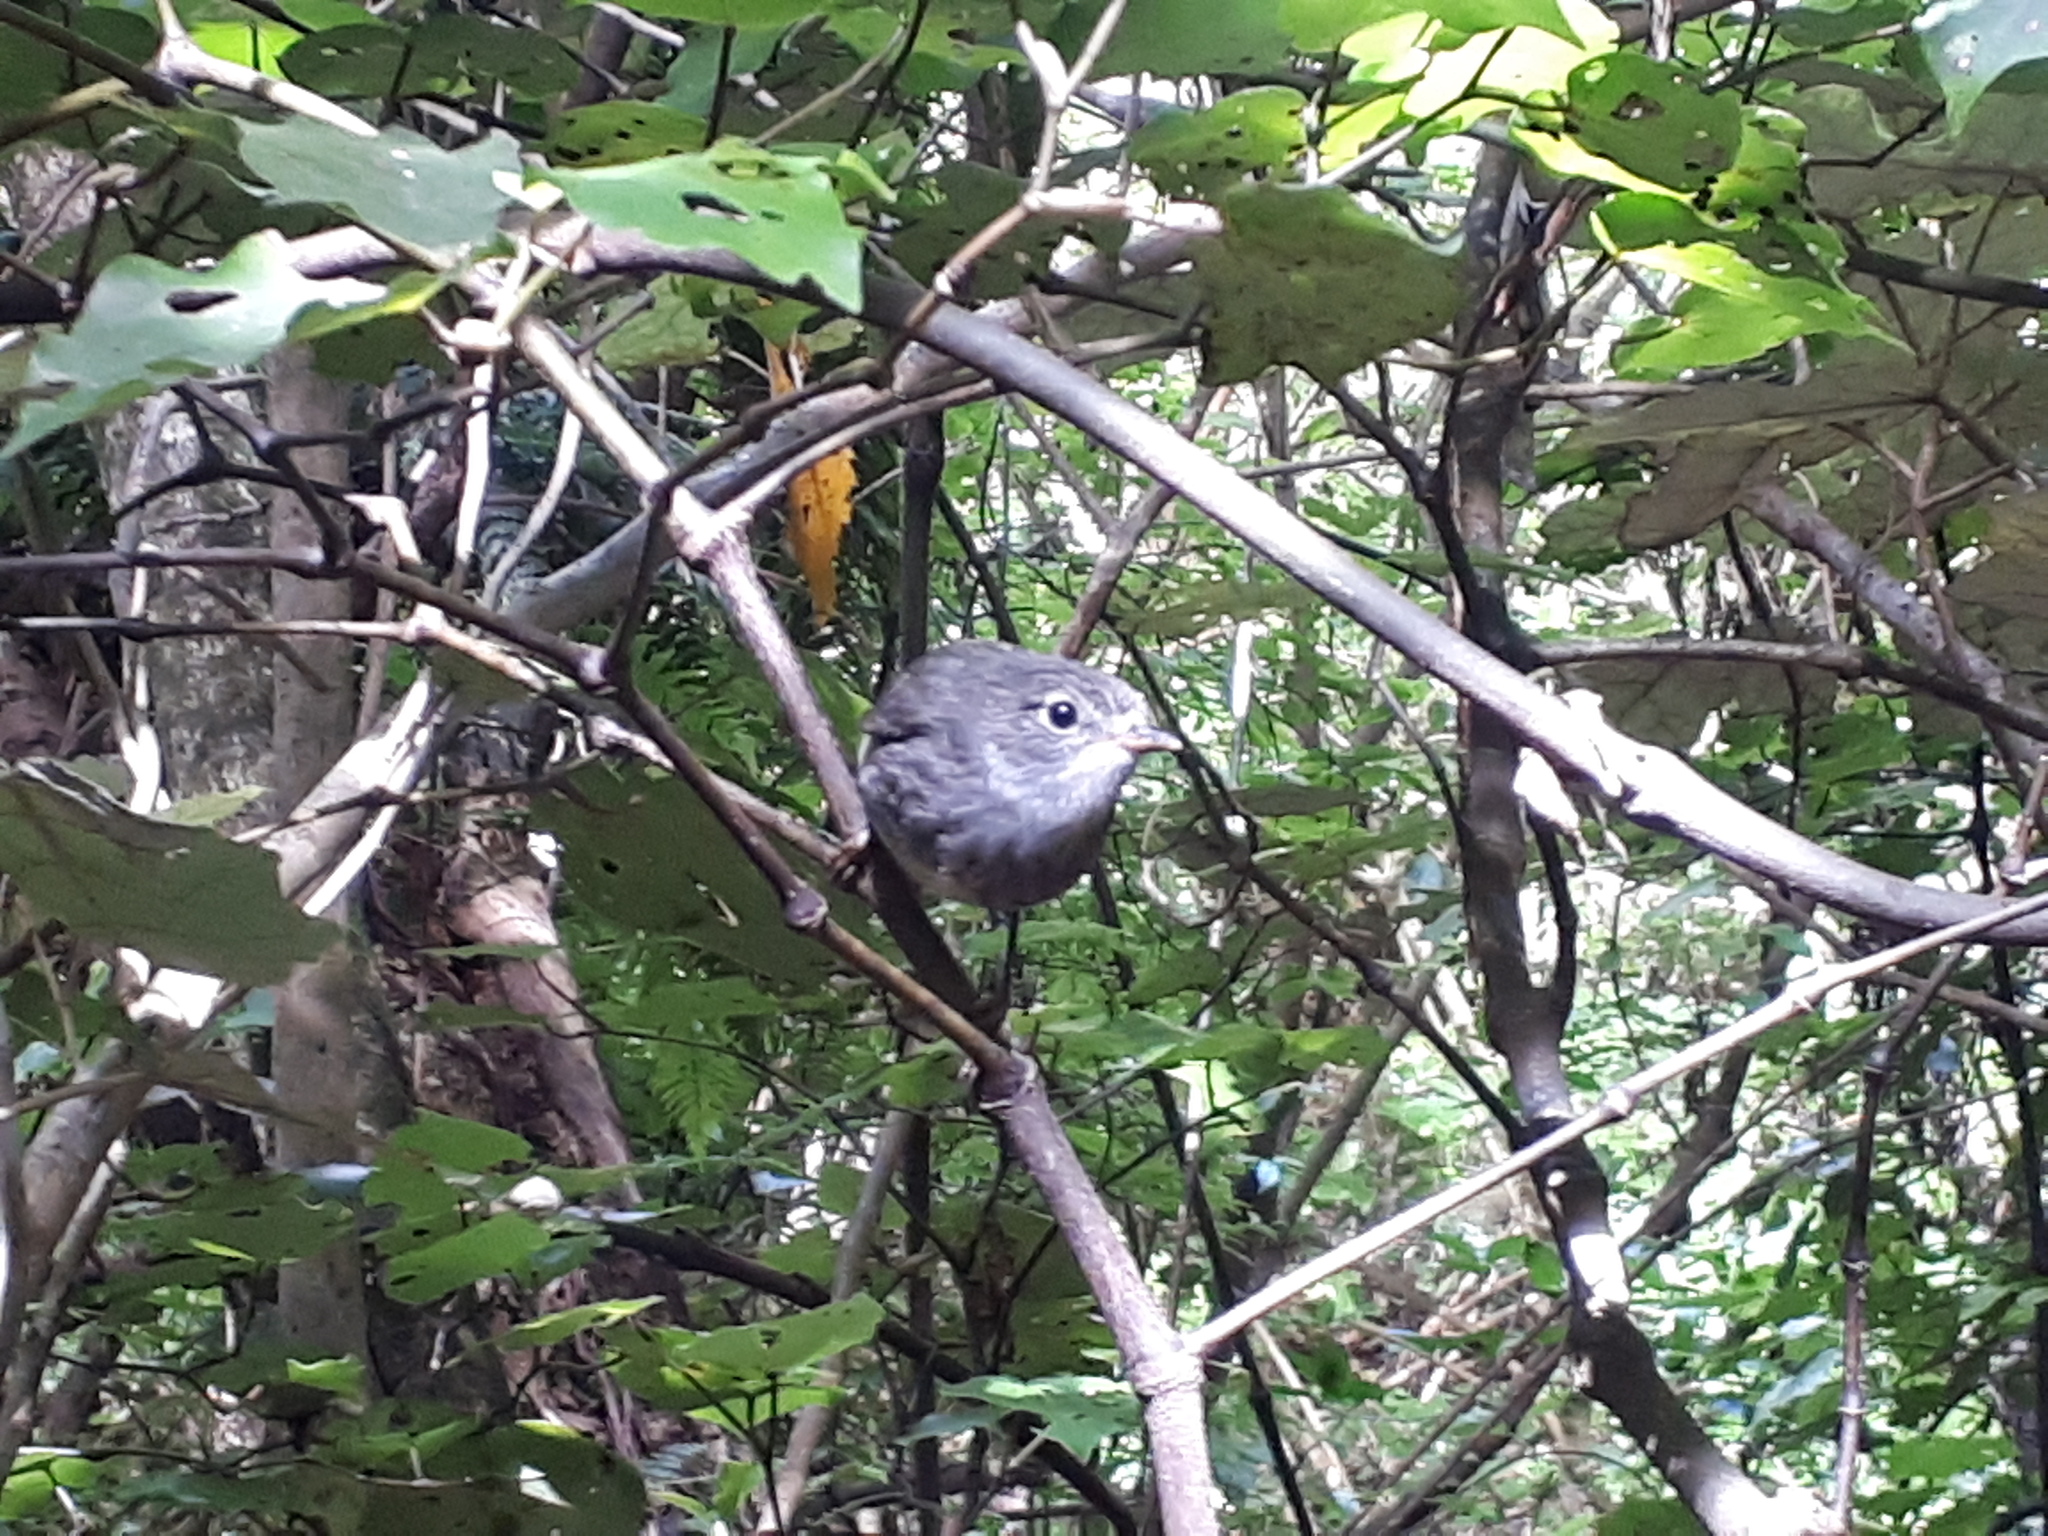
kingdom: Animalia
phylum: Chordata
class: Aves
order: Passeriformes
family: Petroicidae
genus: Petroica
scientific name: Petroica australis
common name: New zealand robin
